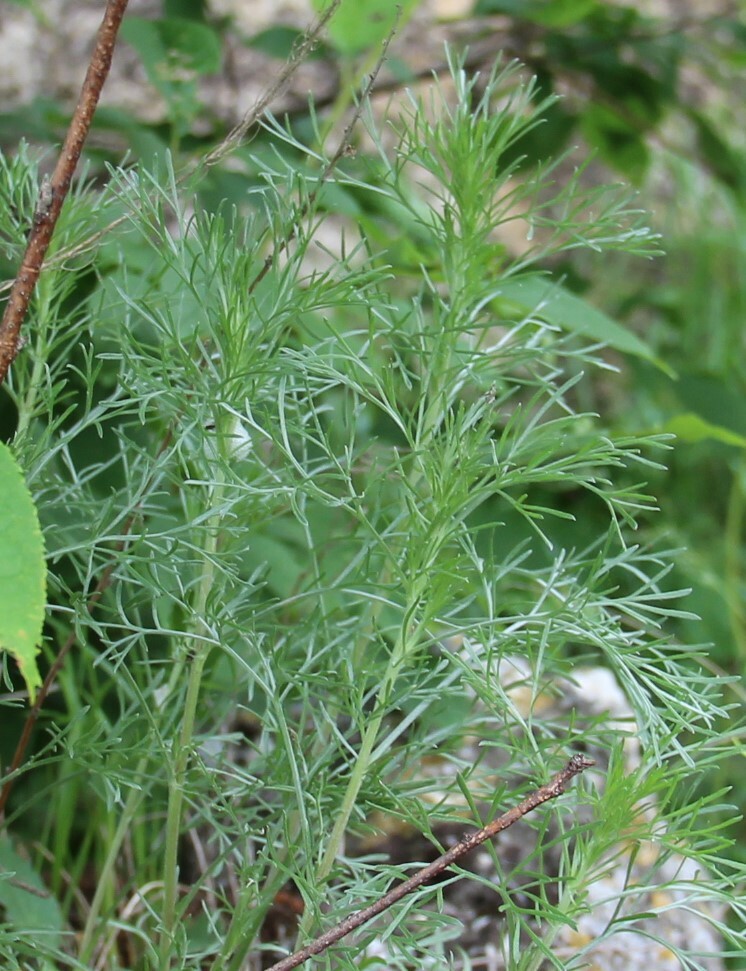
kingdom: Plantae
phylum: Tracheophyta
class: Magnoliopsida
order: Asterales
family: Asteraceae
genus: Artemisia
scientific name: Artemisia campestris
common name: Field wormwood
